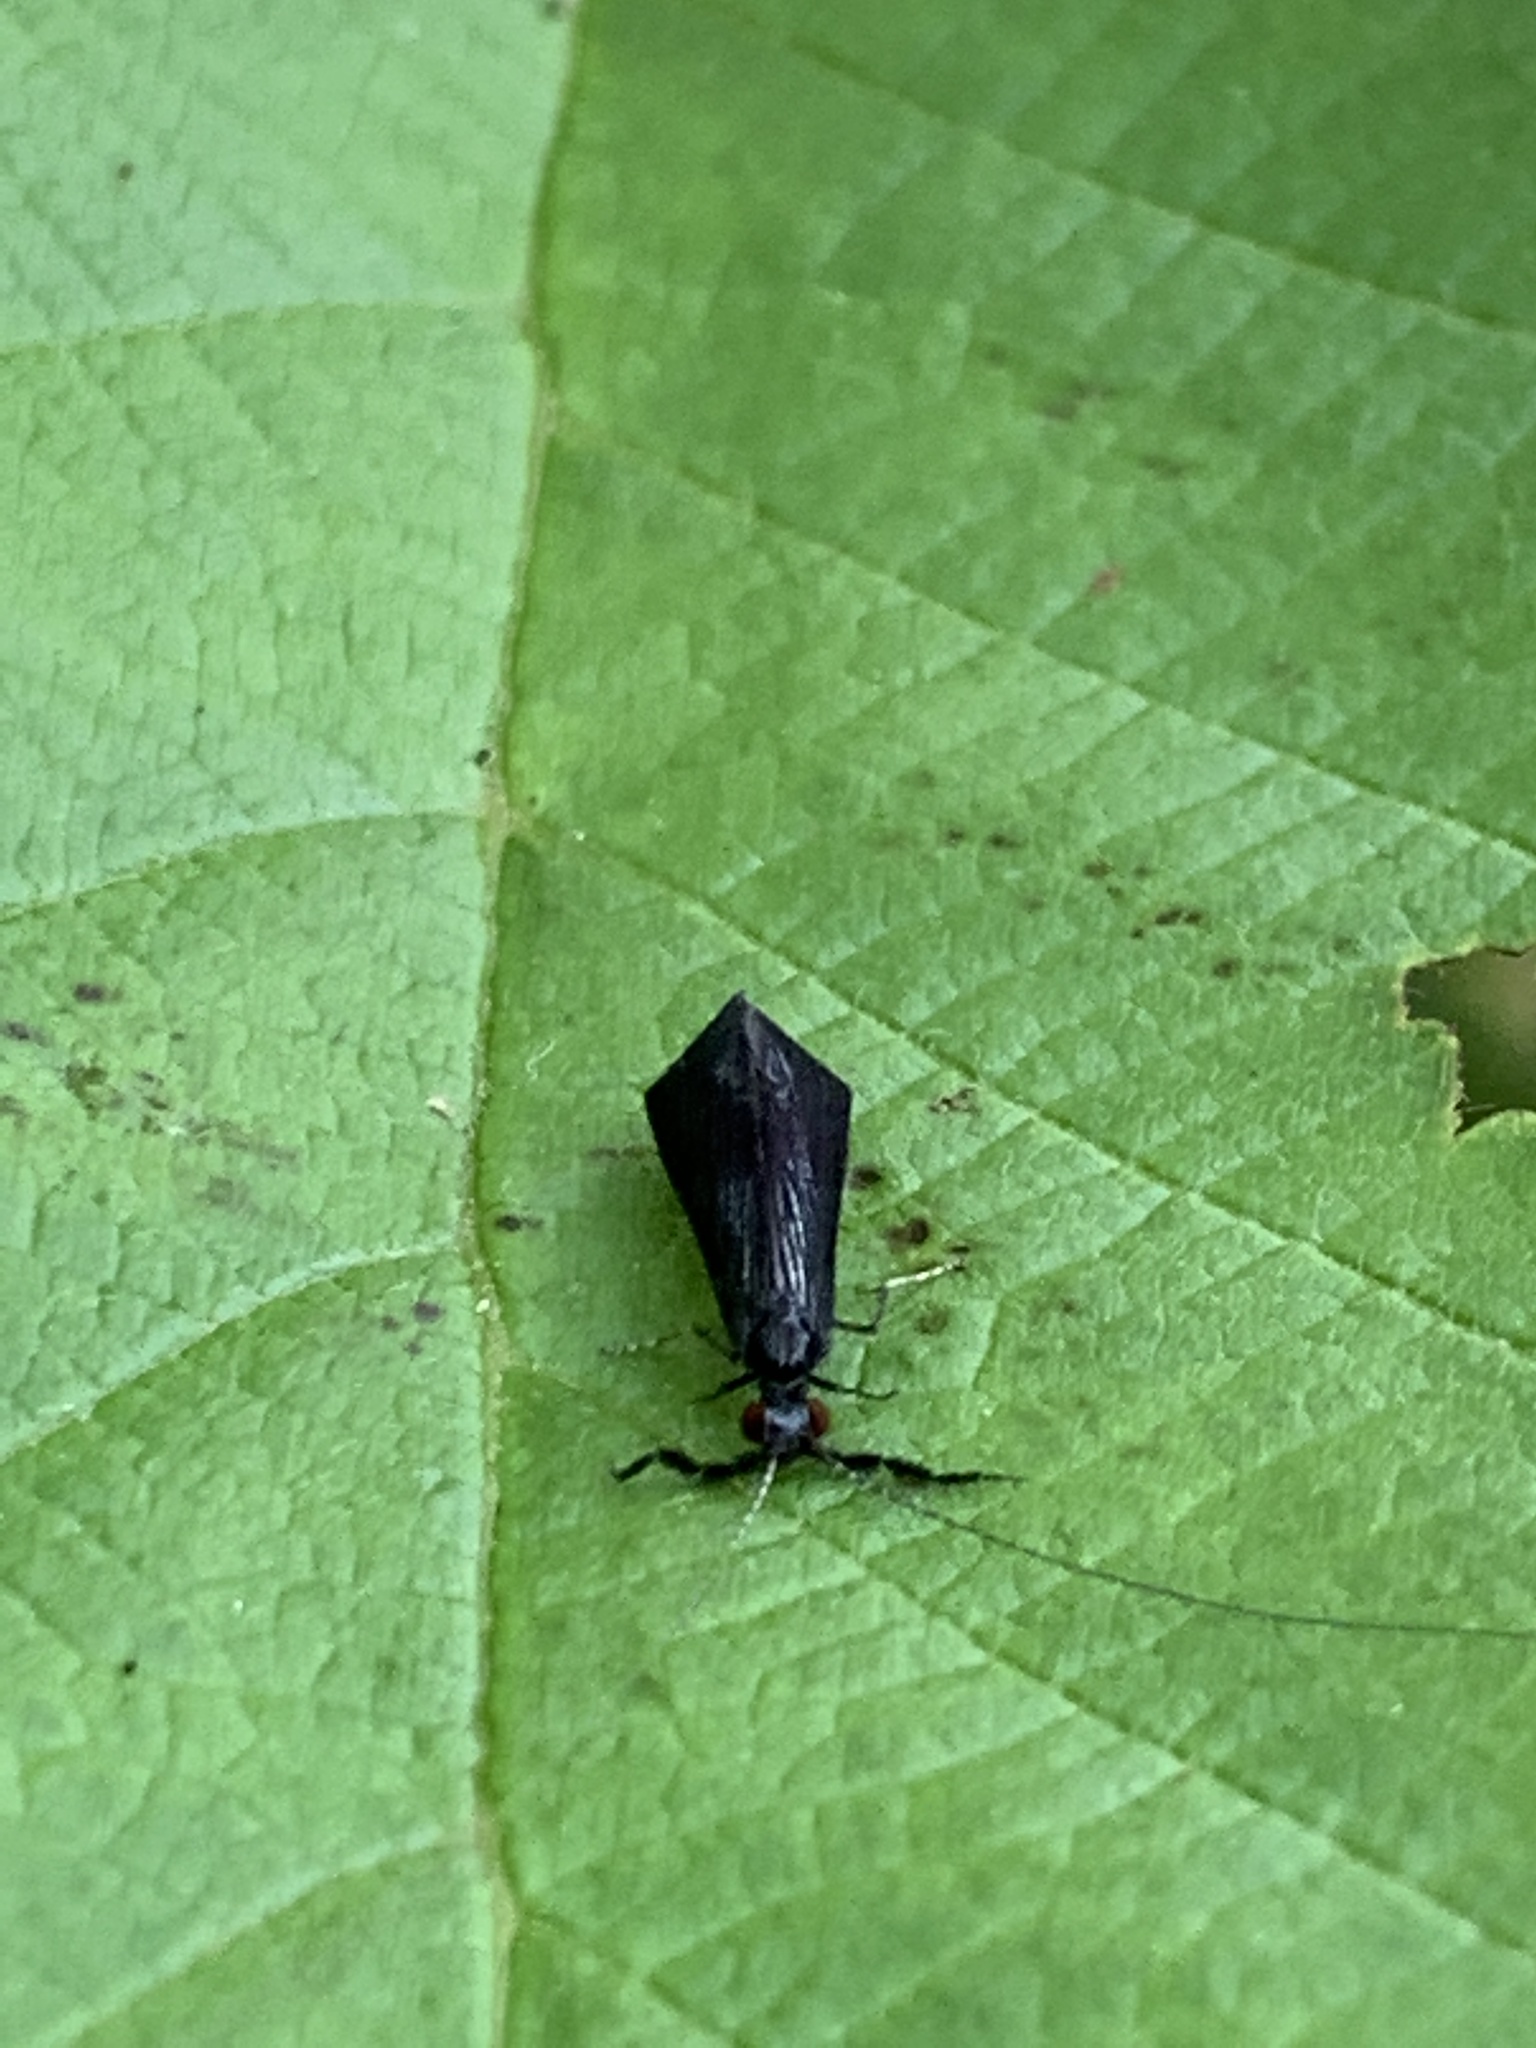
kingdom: Animalia
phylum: Arthropoda
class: Insecta
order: Trichoptera
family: Leptoceridae
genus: Mystacides
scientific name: Mystacides sepulchralis
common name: Black dancer caddisfly
